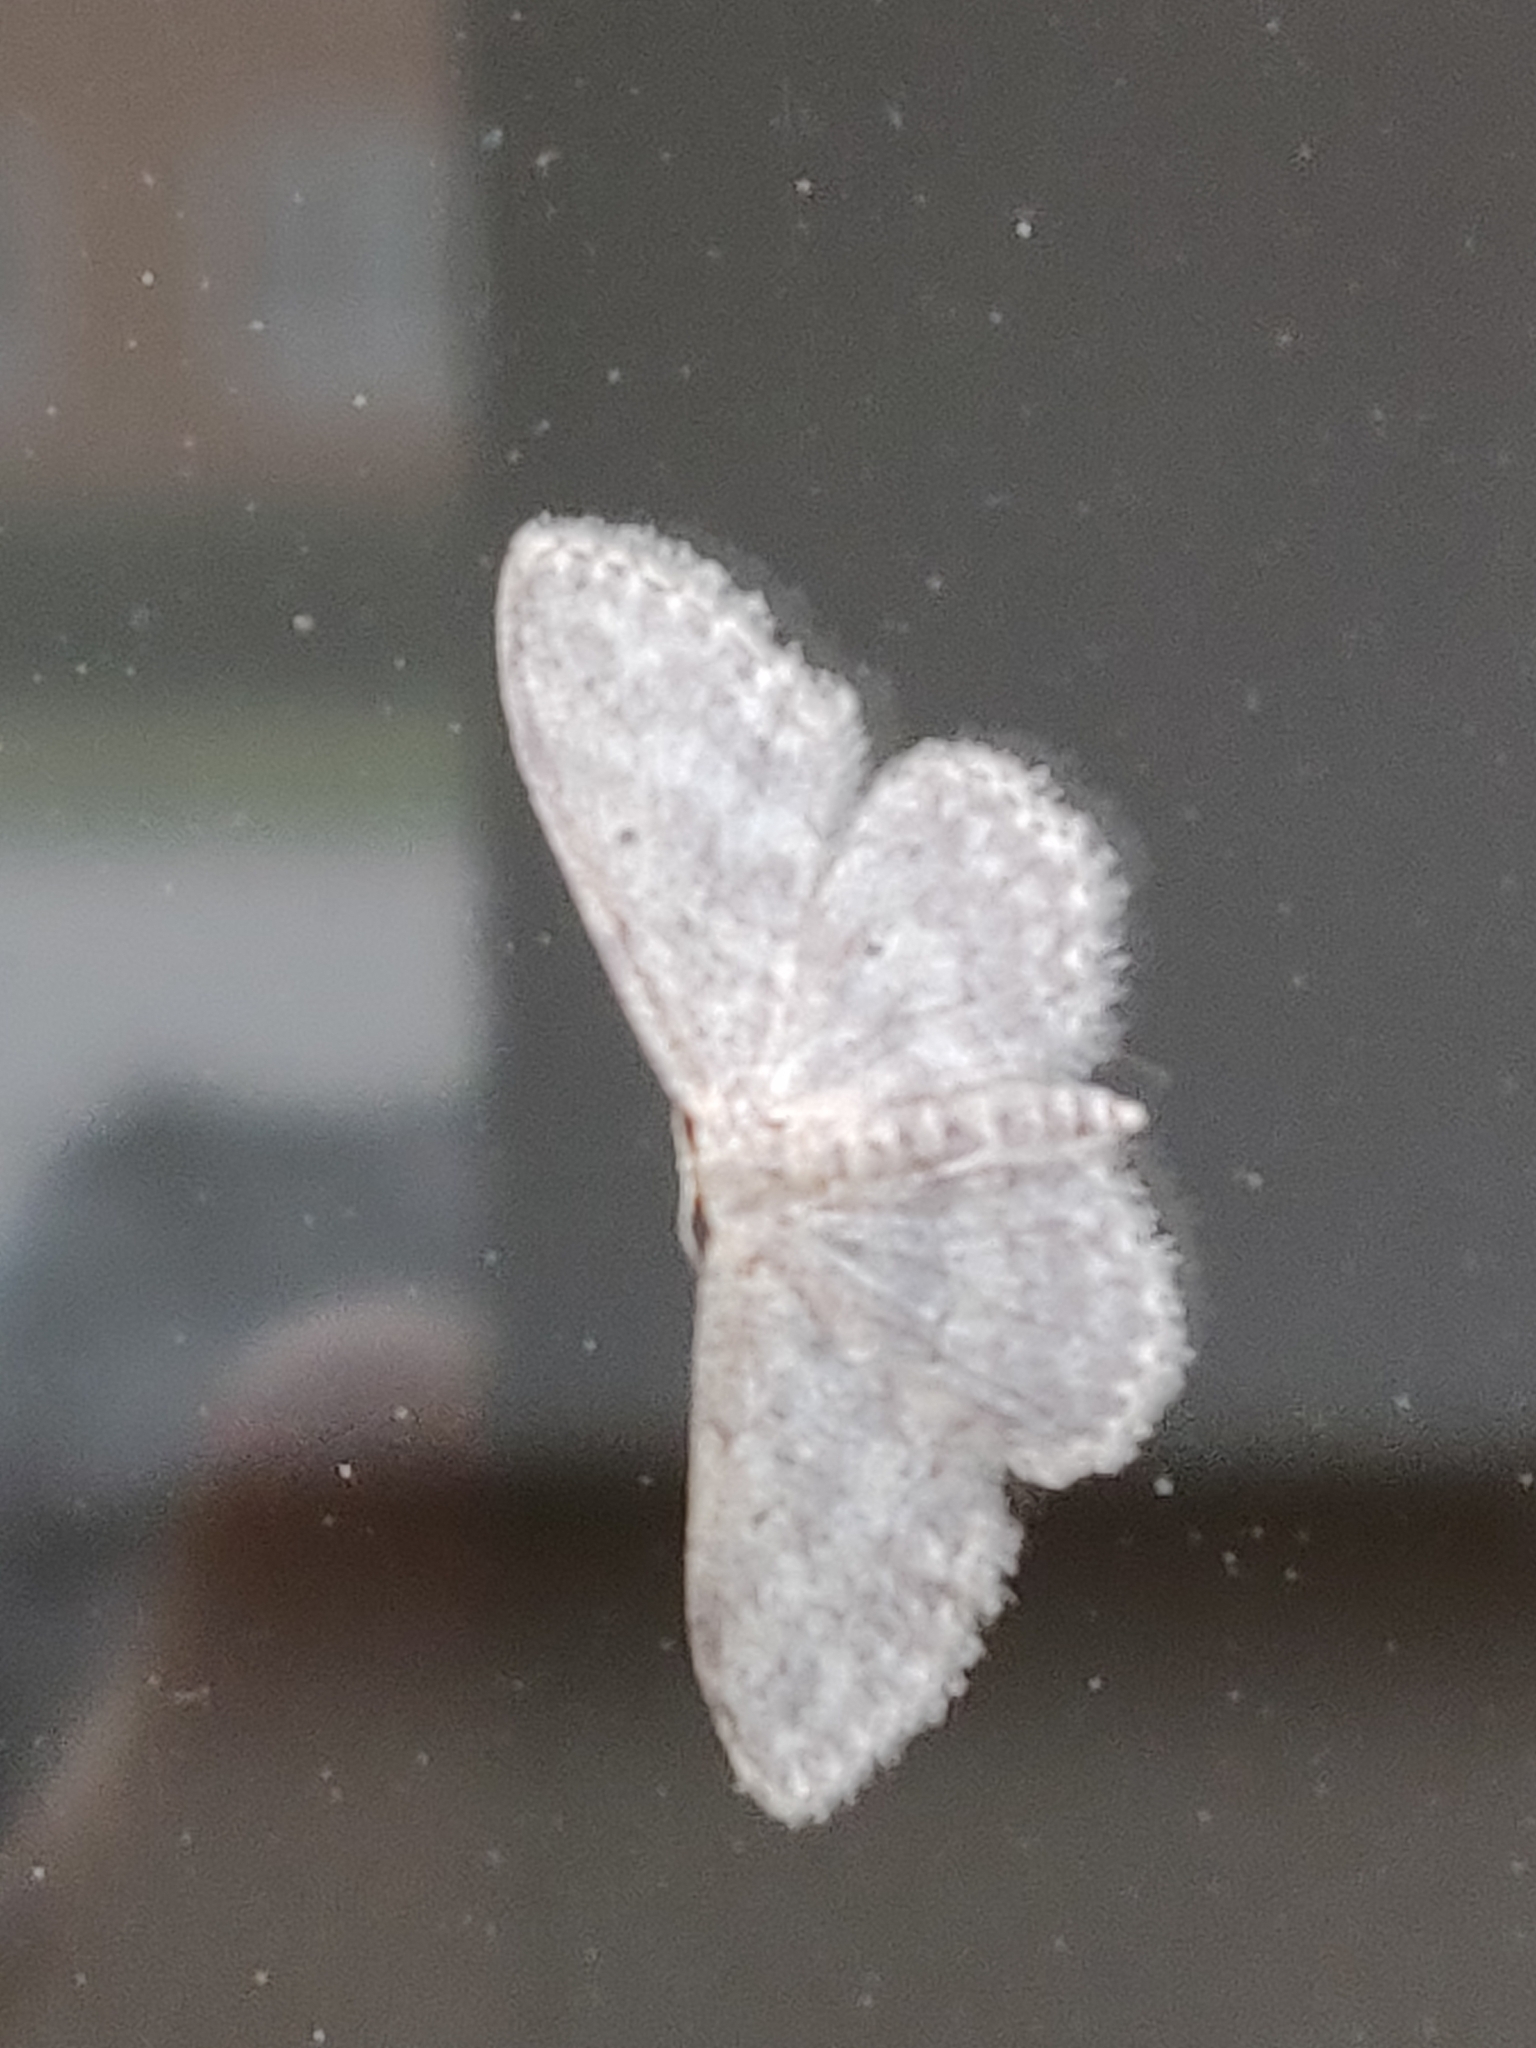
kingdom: Animalia
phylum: Arthropoda
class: Insecta
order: Lepidoptera
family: Geometridae
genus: Idaea
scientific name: Idaea seriata
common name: Small dusty wave
